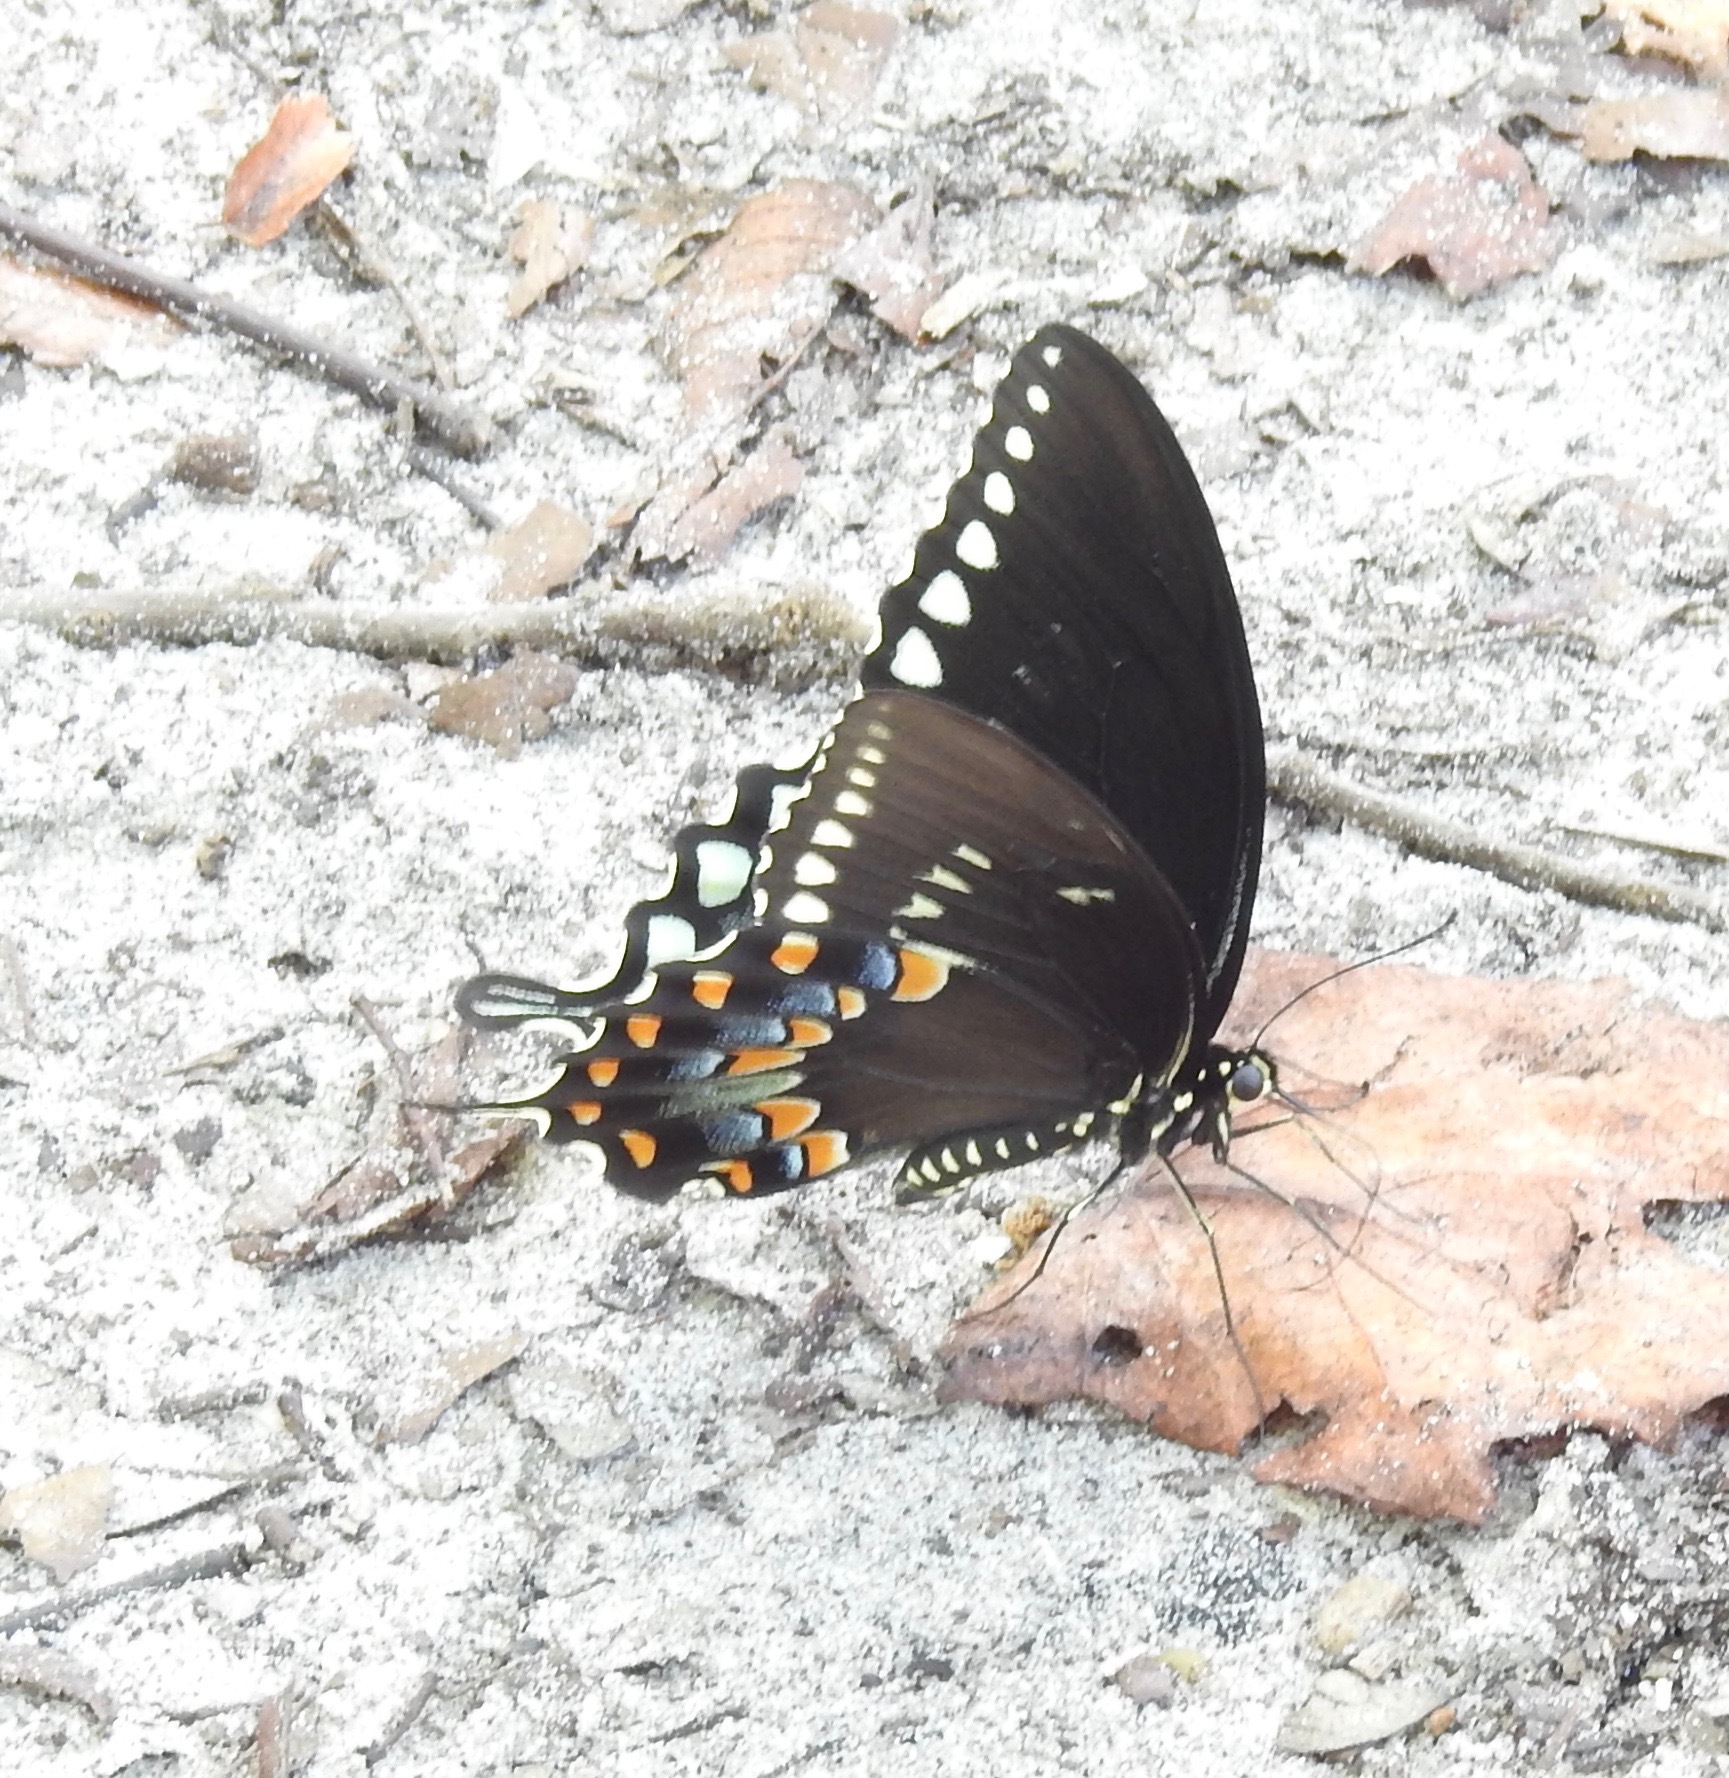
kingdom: Animalia
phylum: Arthropoda
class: Insecta
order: Lepidoptera
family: Papilionidae
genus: Papilio
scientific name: Papilio troilus
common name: Spicebush swallowtail
